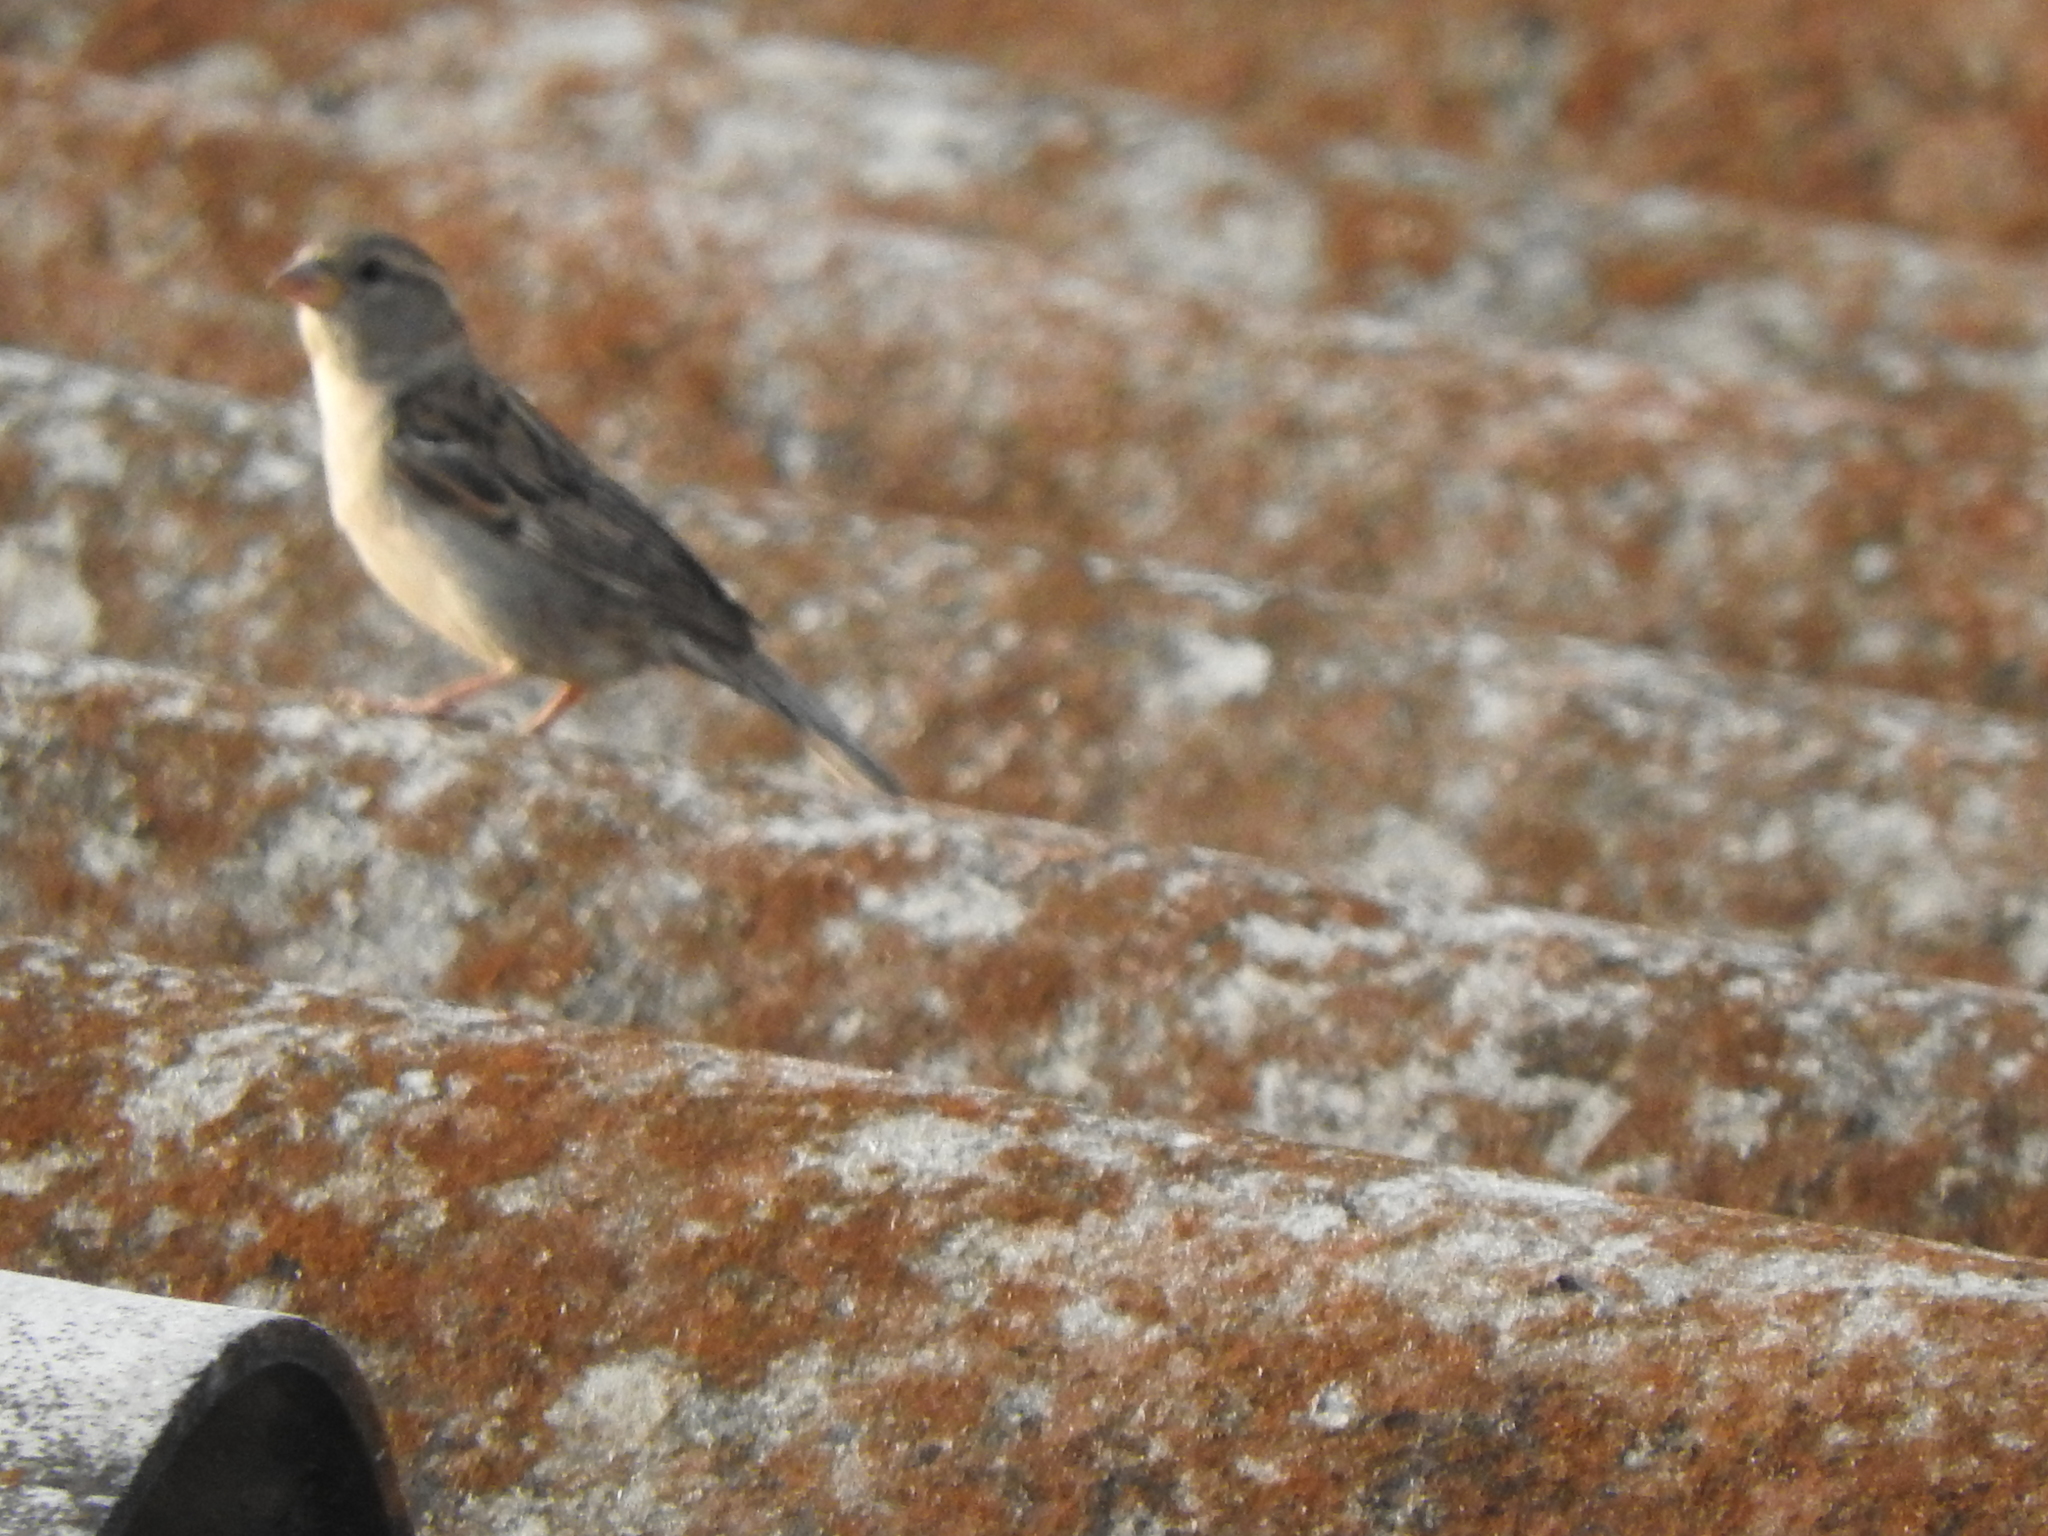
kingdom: Animalia
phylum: Chordata
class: Aves
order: Passeriformes
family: Passeridae
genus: Passer
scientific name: Passer domesticus
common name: House sparrow
